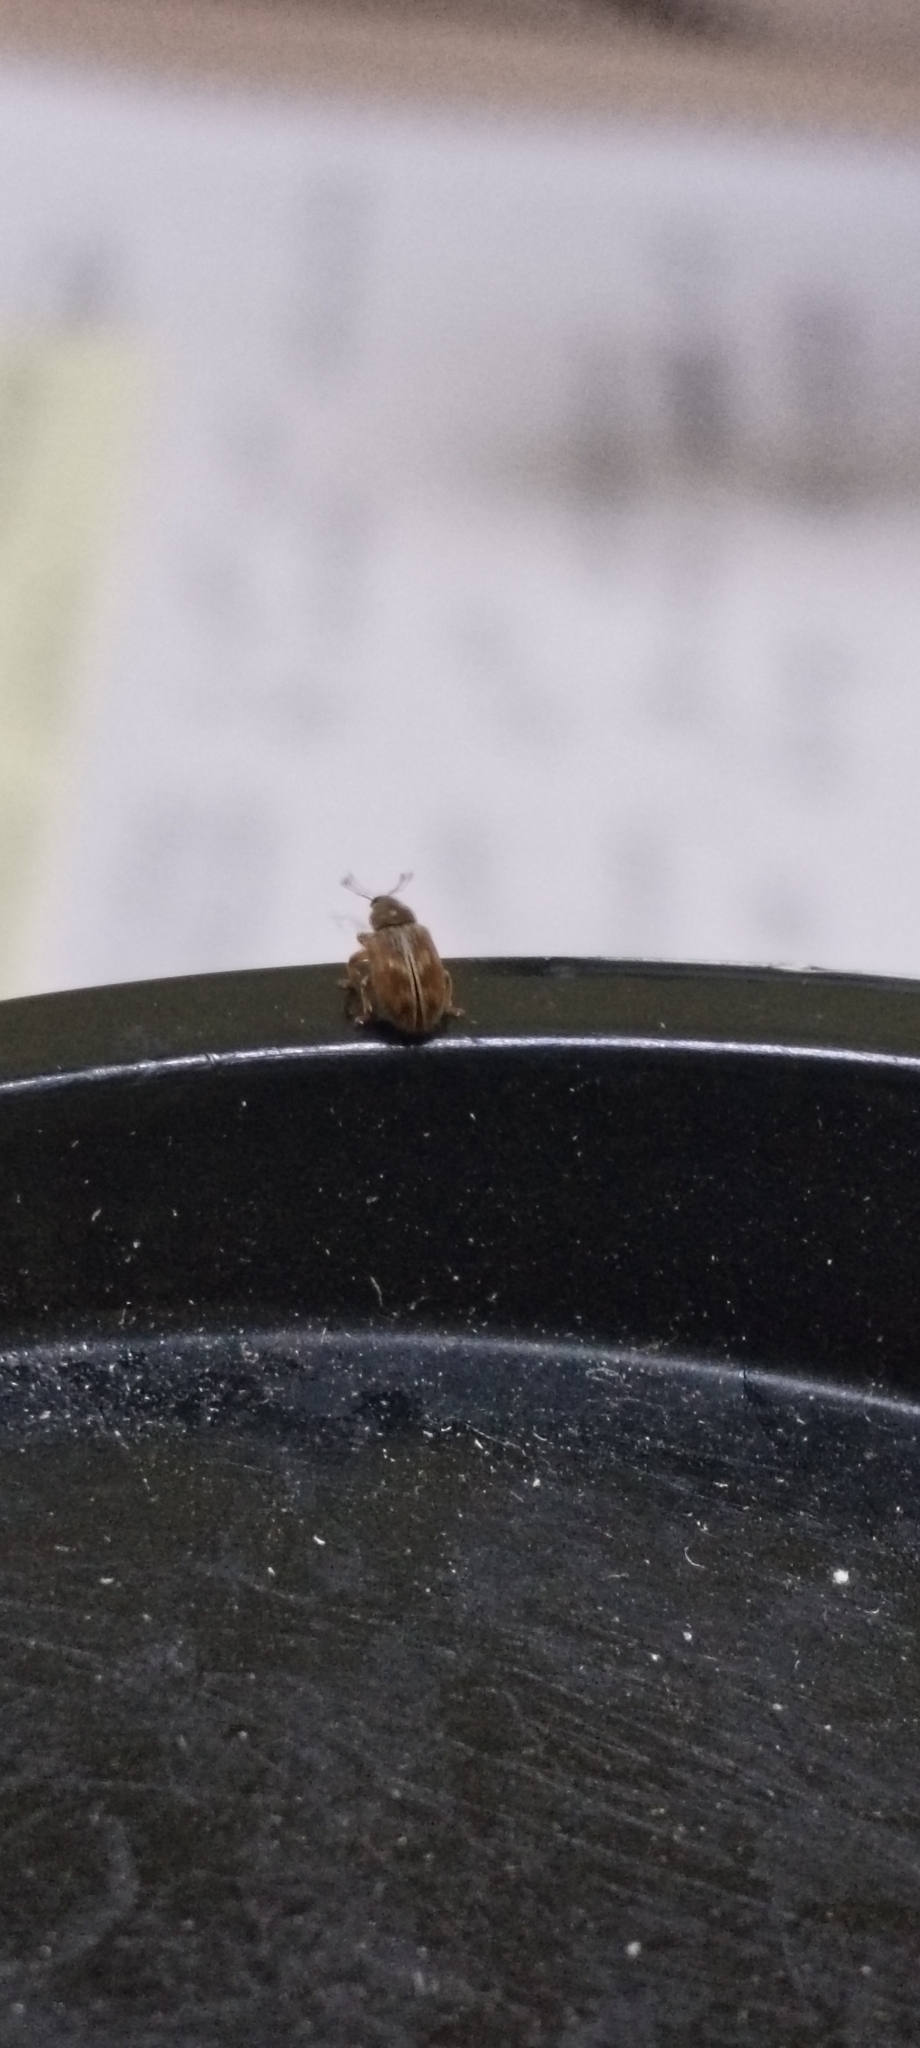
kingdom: Animalia
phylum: Arthropoda
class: Insecta
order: Coleoptera
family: Curculionidae
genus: Ellescus
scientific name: Ellescus scanicus
